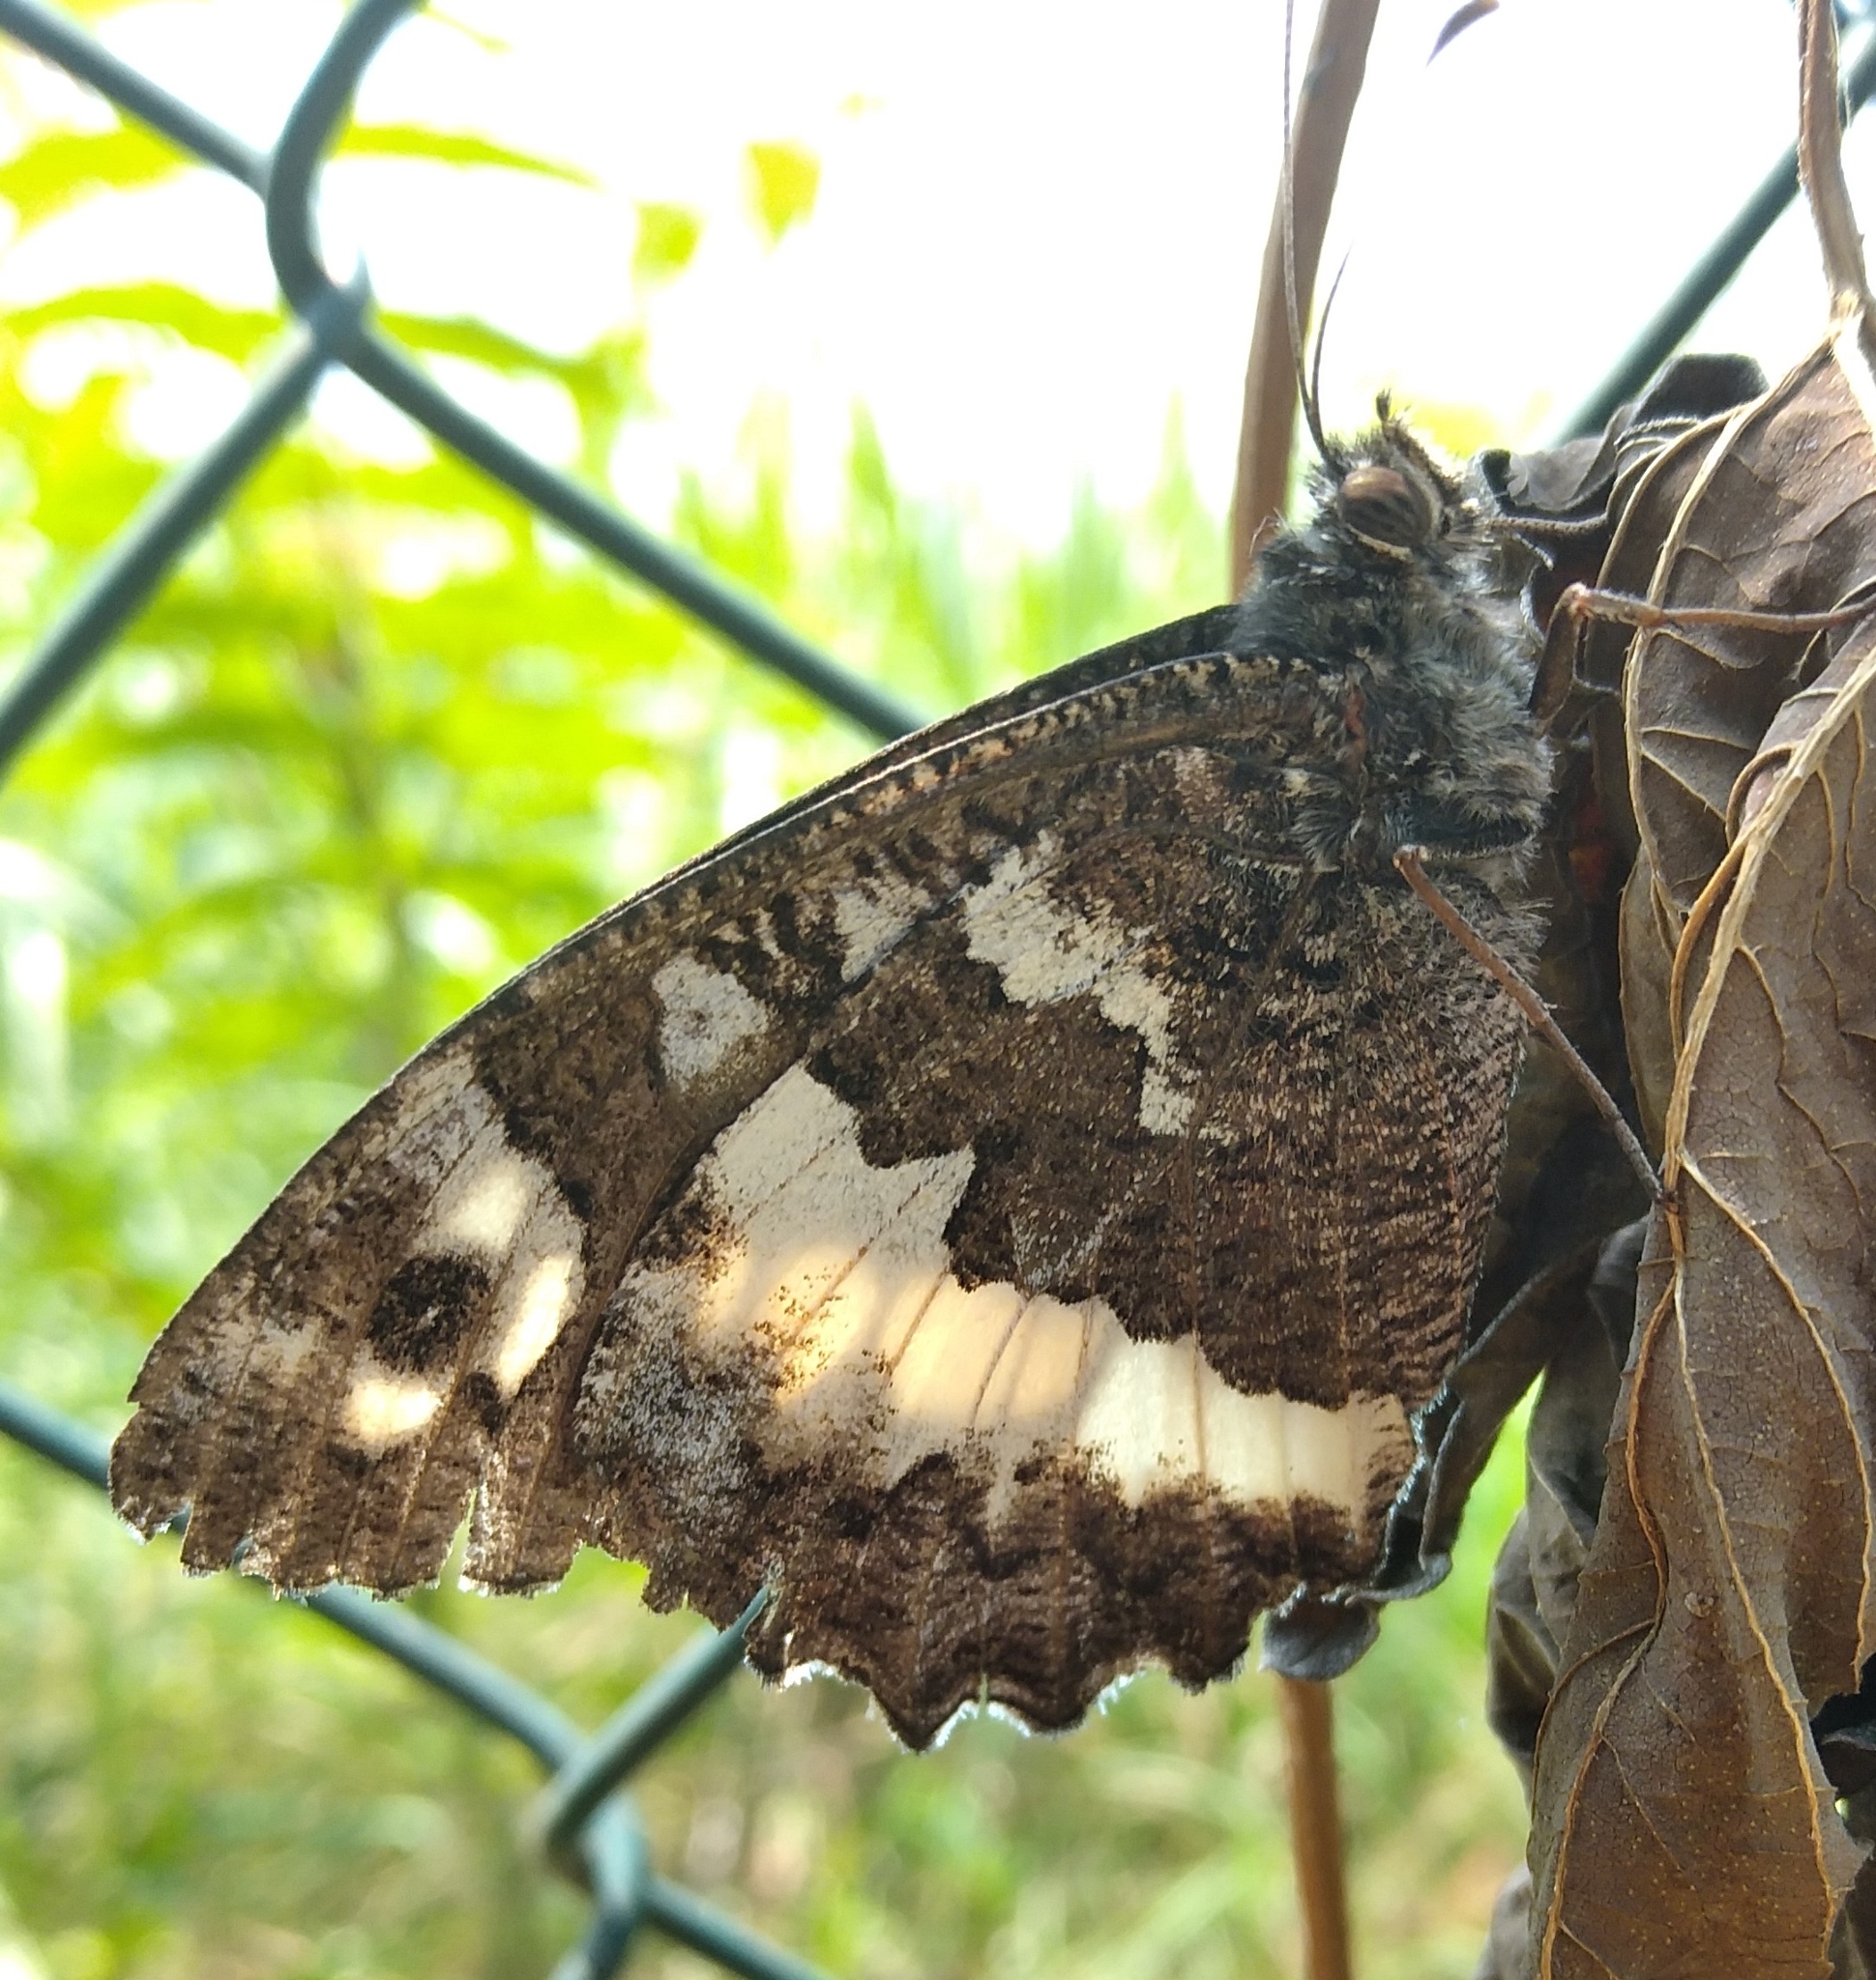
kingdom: Animalia
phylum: Arthropoda
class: Insecta
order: Lepidoptera
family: Lycaenidae
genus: Loweia
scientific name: Loweia tityrus
